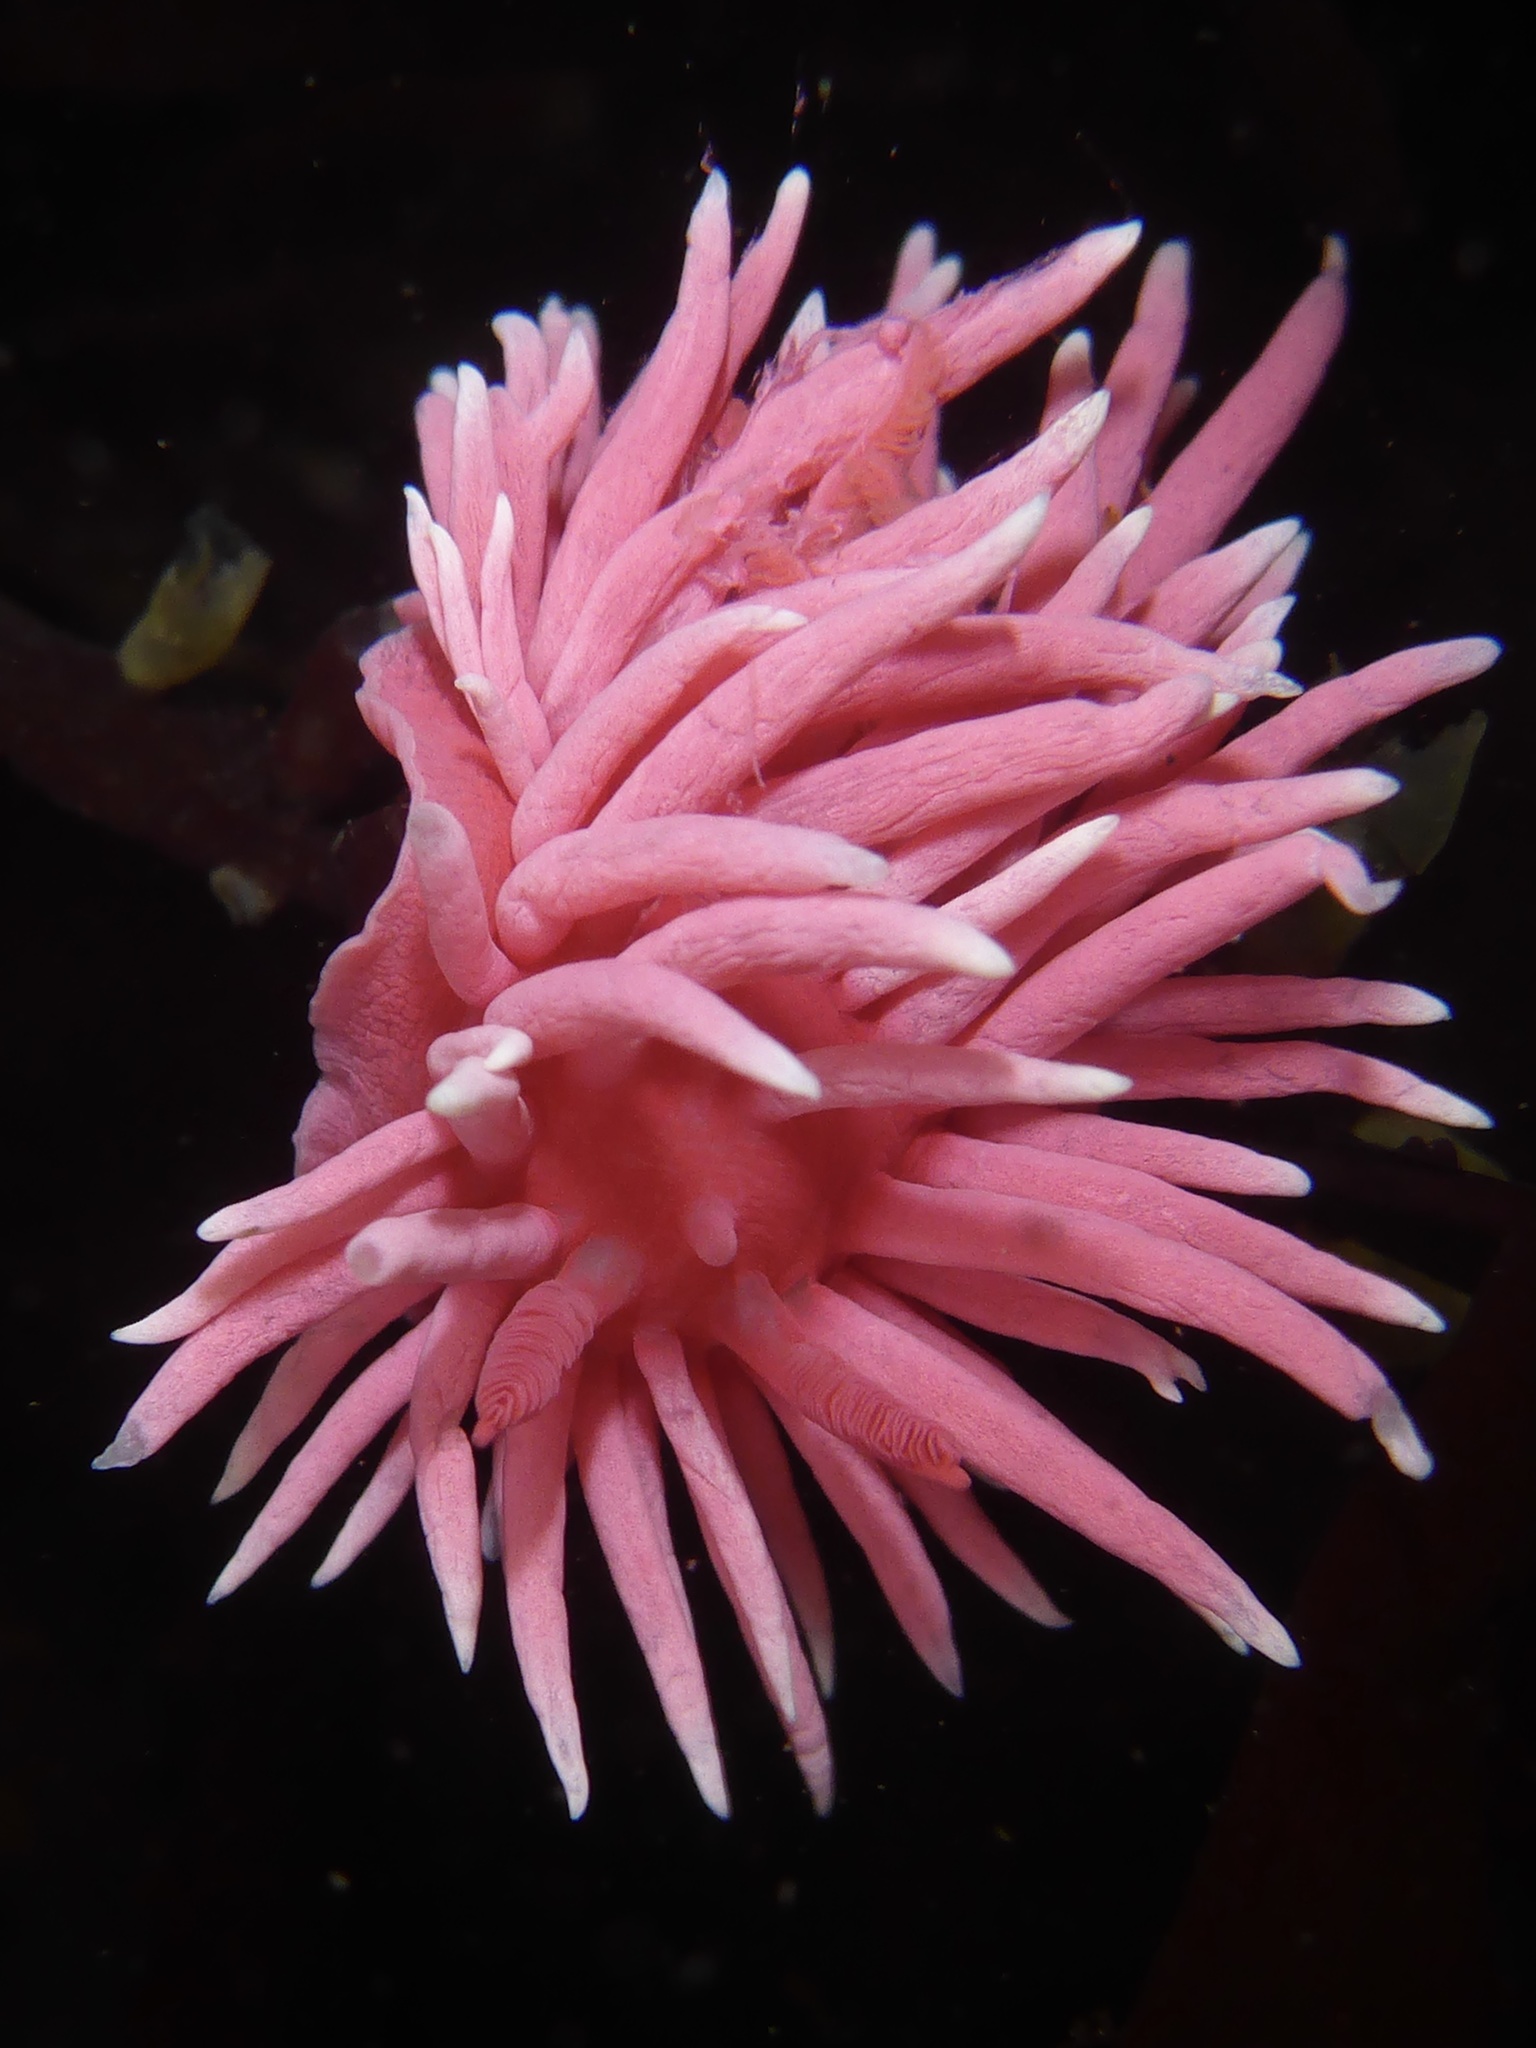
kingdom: Animalia
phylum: Mollusca
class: Gastropoda
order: Nudibranchia
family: Goniodorididae
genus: Okenia
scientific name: Okenia
